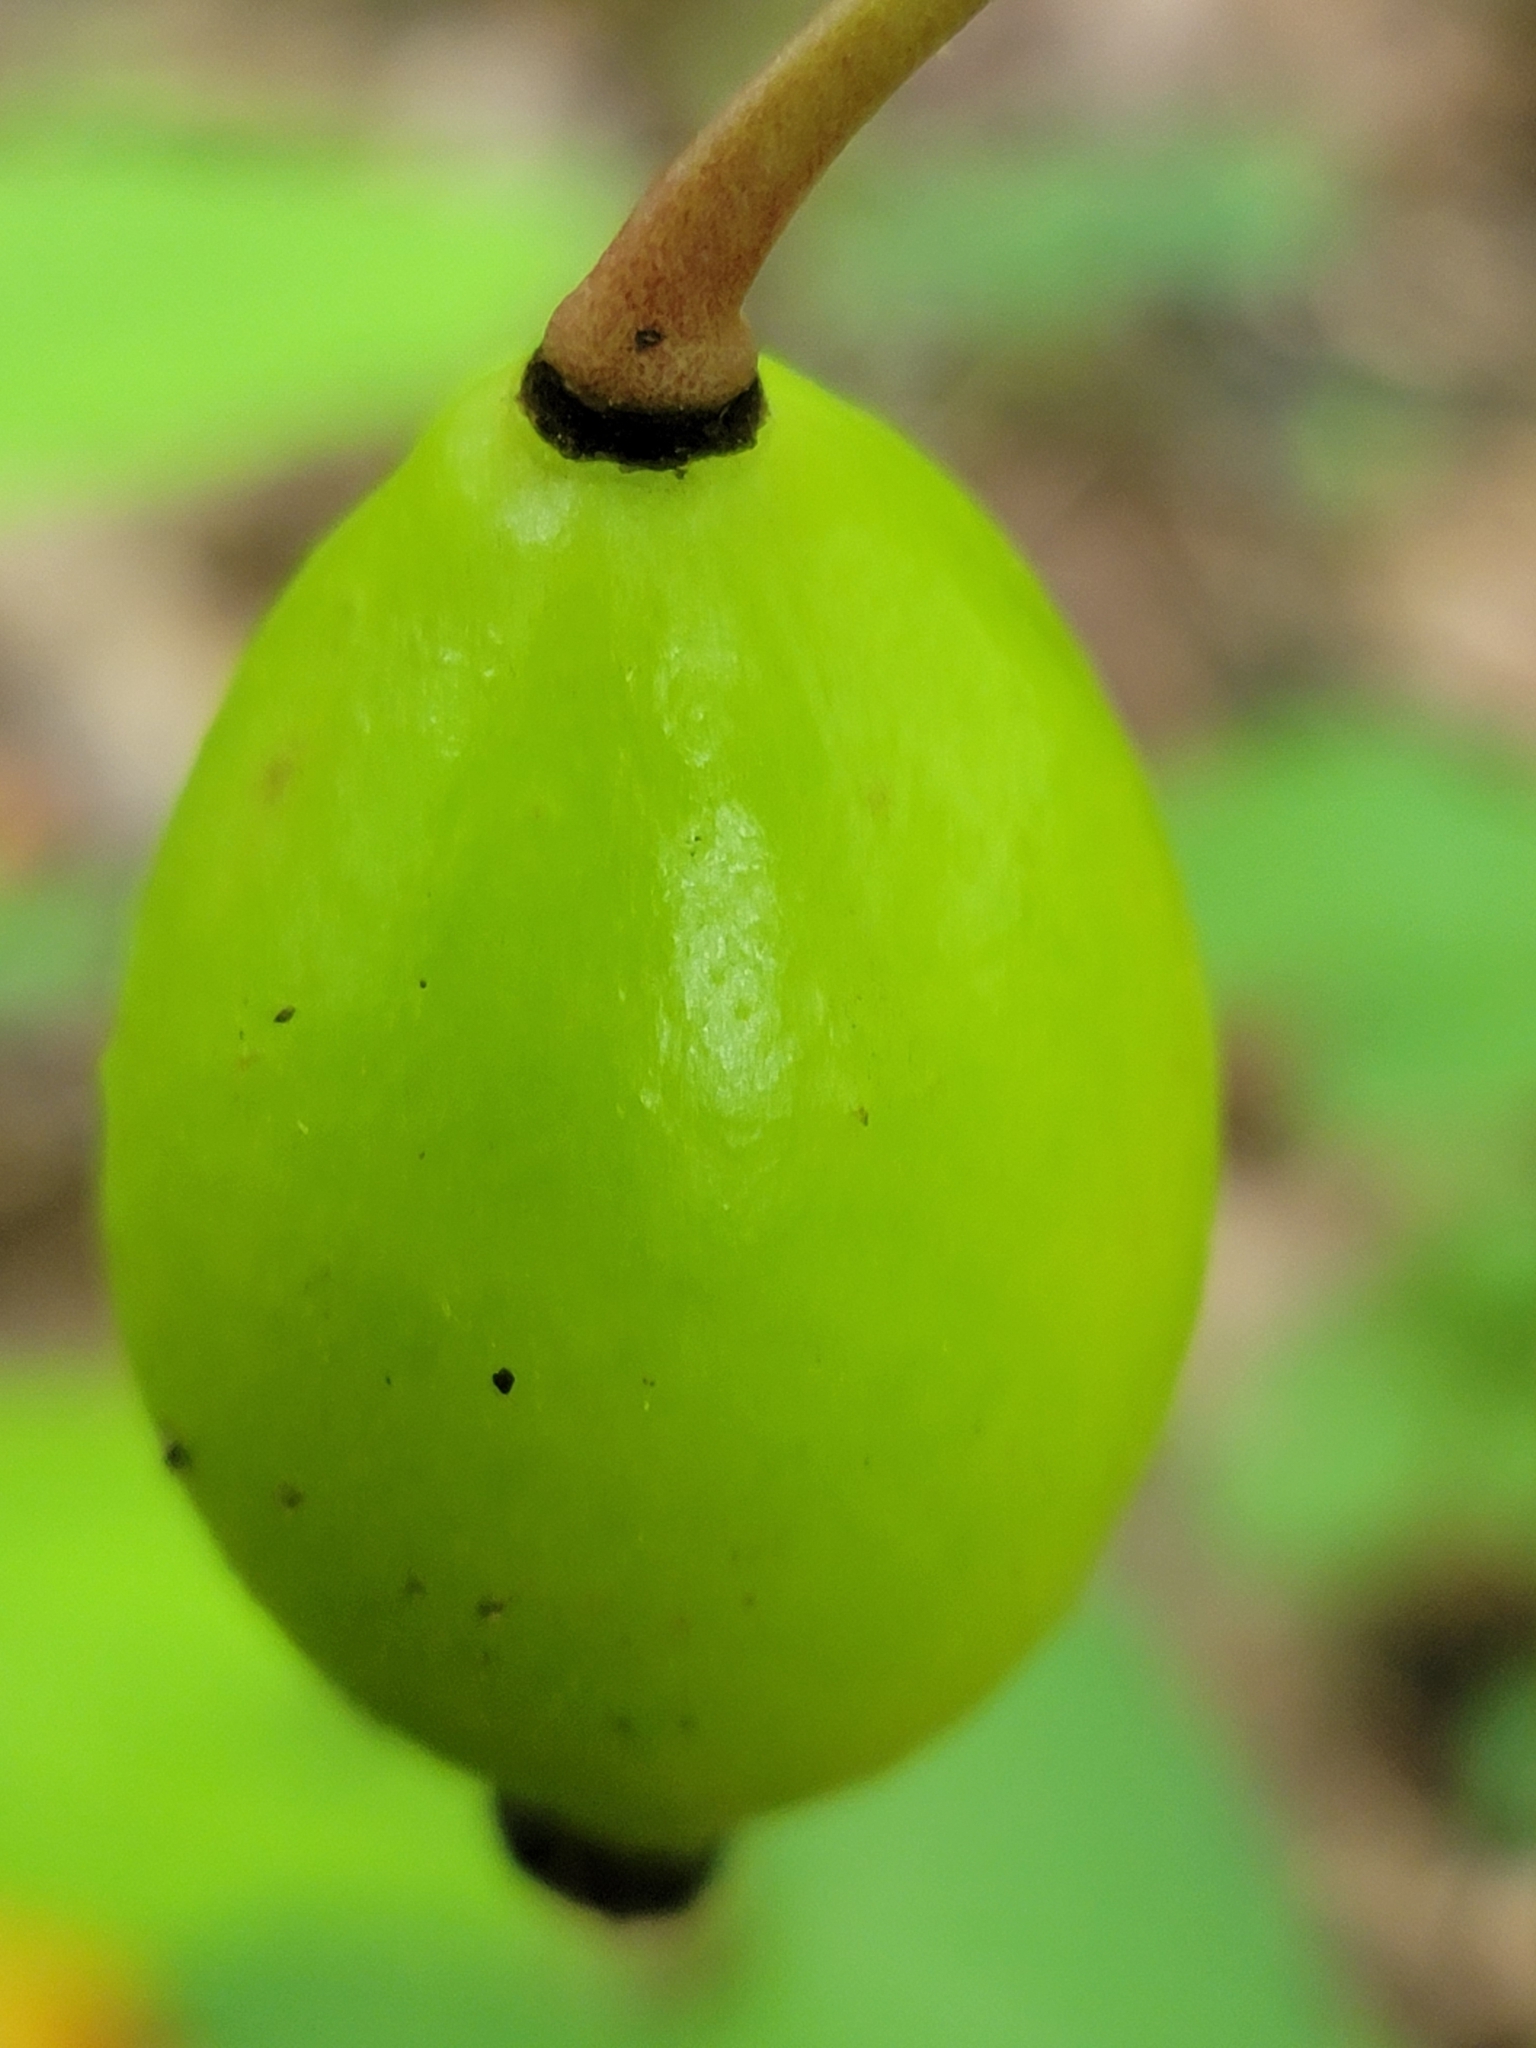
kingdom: Plantae
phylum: Tracheophyta
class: Magnoliopsida
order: Ranunculales
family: Berberidaceae
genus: Podophyllum
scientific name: Podophyllum peltatum
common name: Wild mandrake
